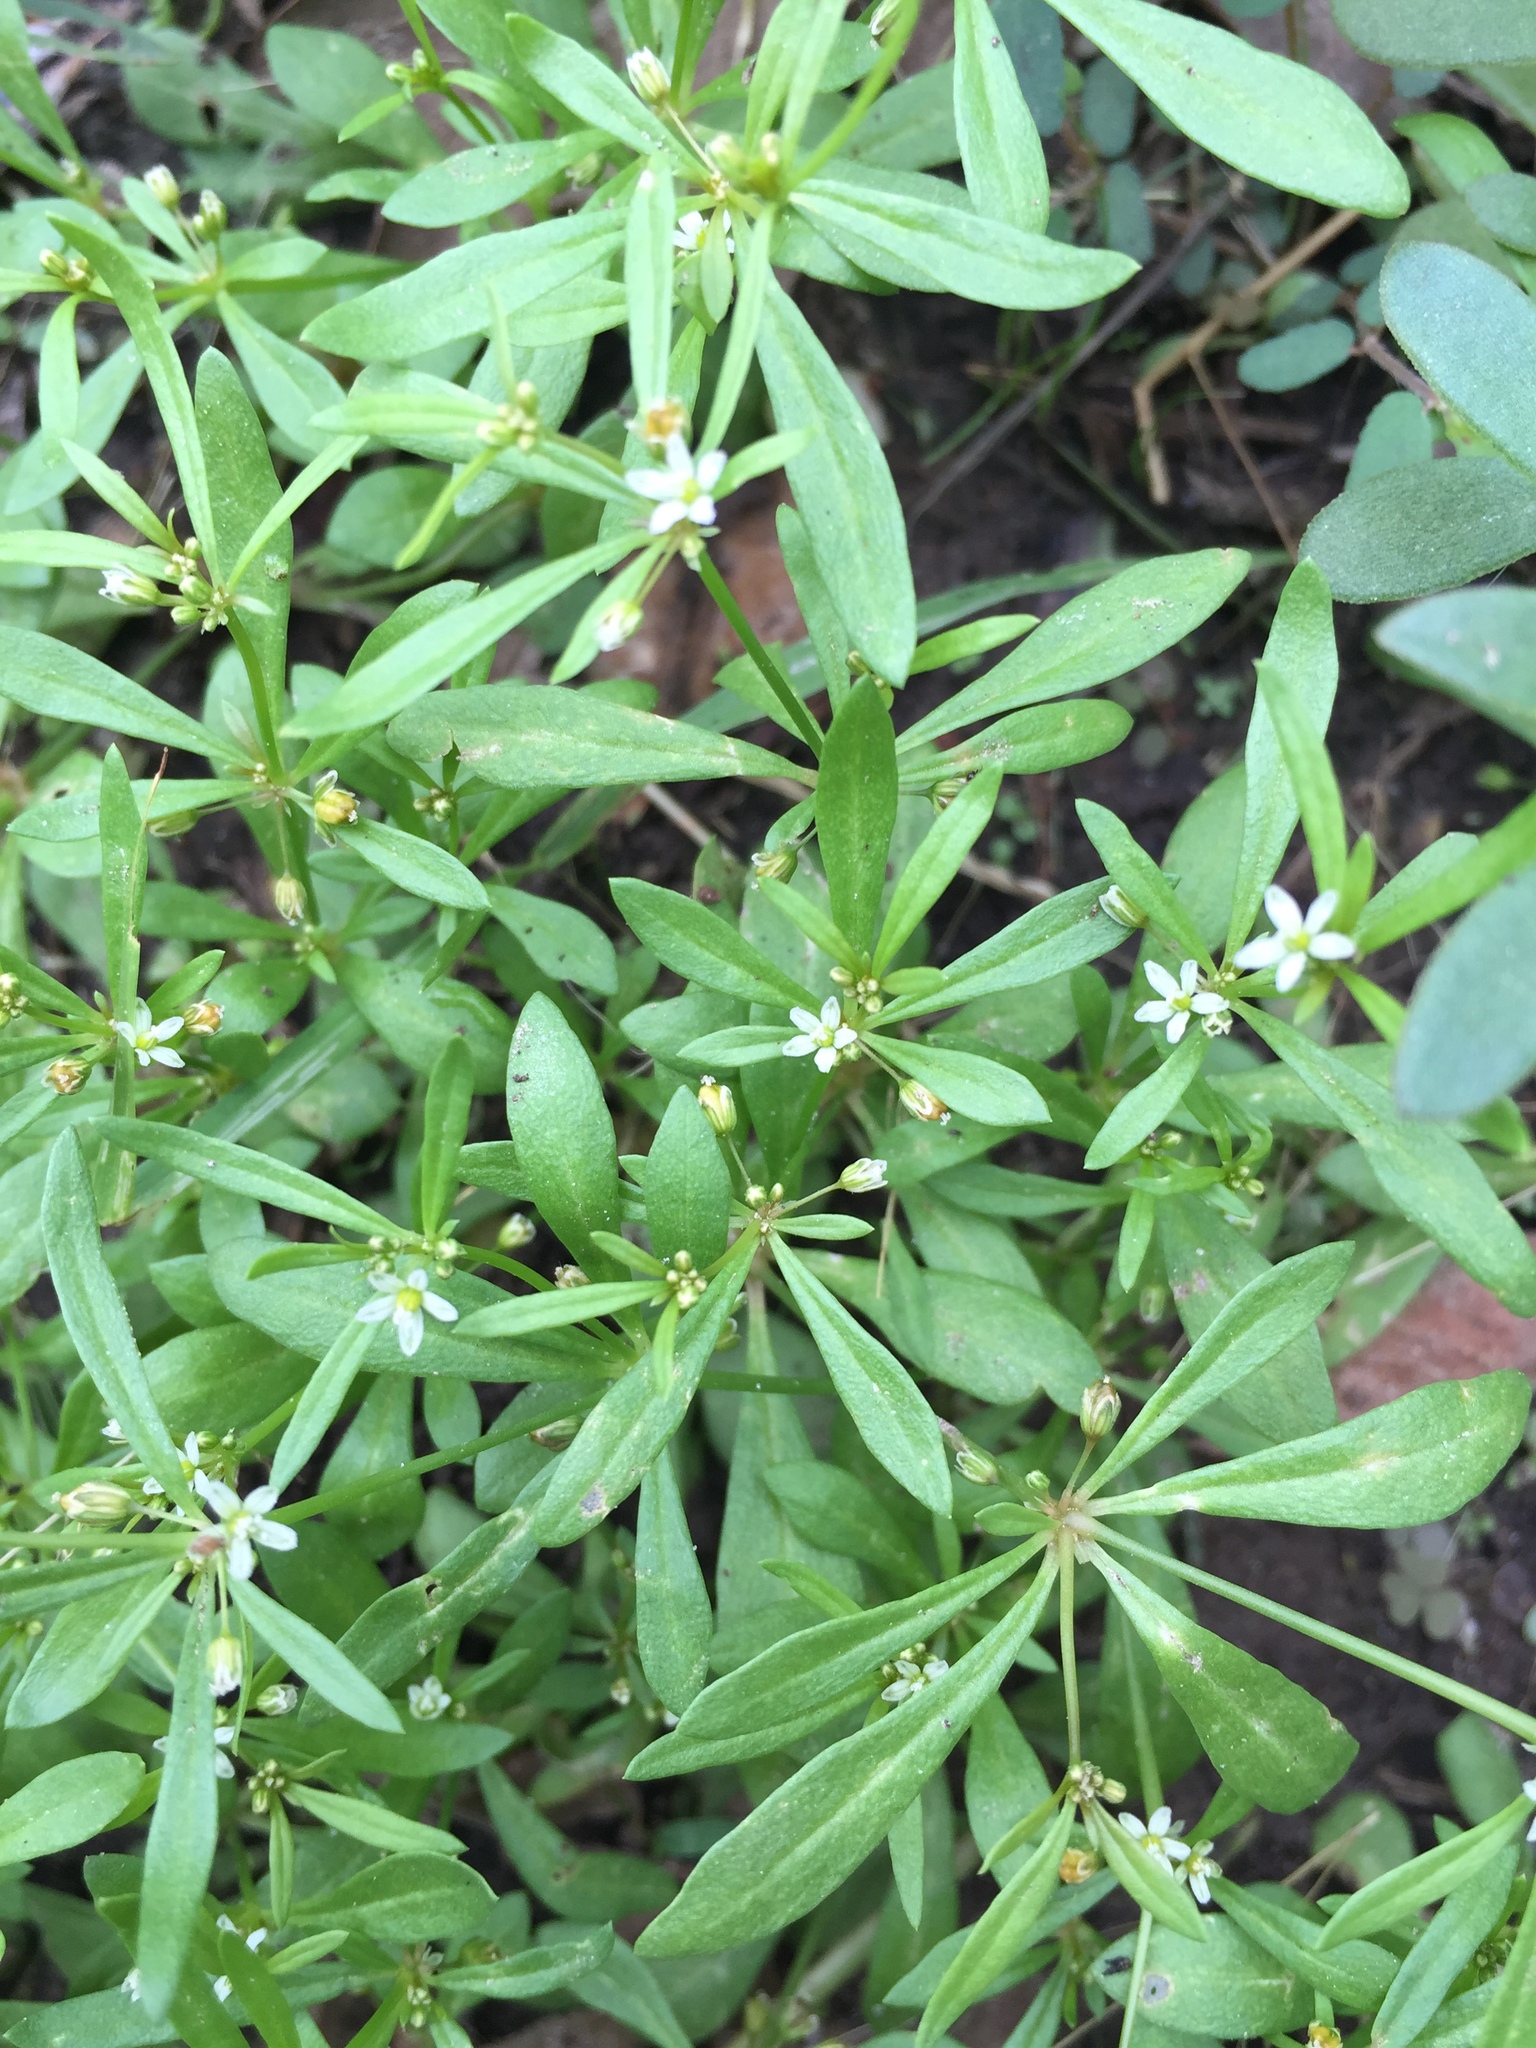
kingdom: Plantae
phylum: Tracheophyta
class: Magnoliopsida
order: Caryophyllales
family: Molluginaceae
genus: Mollugo
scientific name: Mollugo verticillata
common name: Green carpetweed
